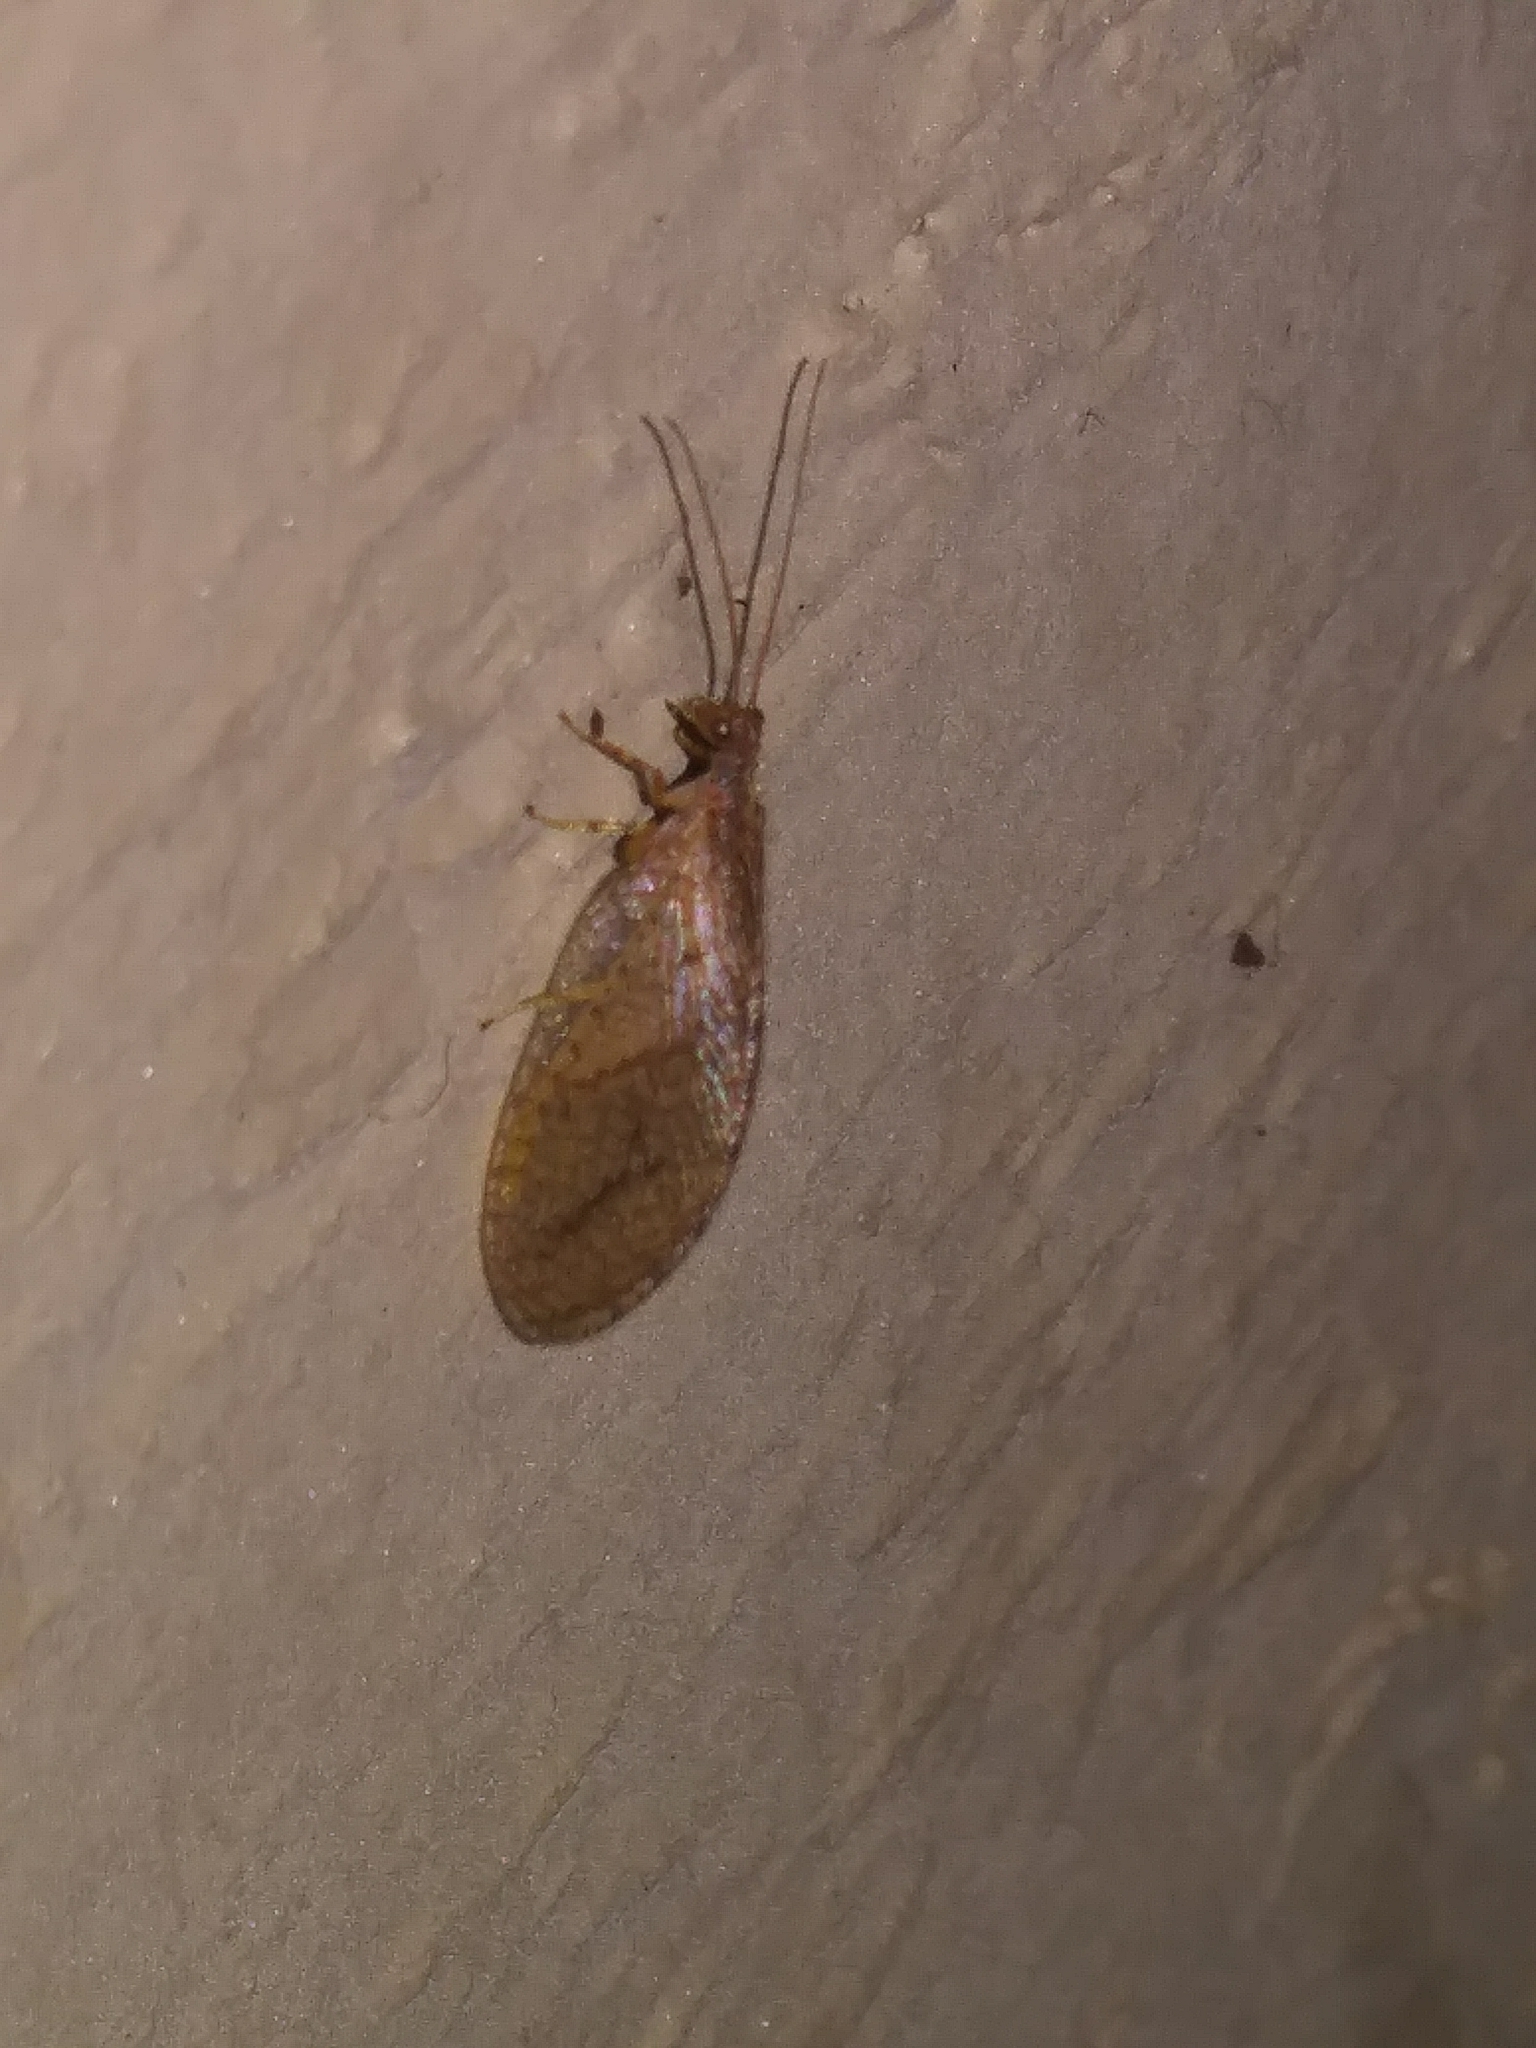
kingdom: Animalia
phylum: Arthropoda
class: Insecta
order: Neuroptera
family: Hemerobiidae
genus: Micromus
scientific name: Micromus posticus
